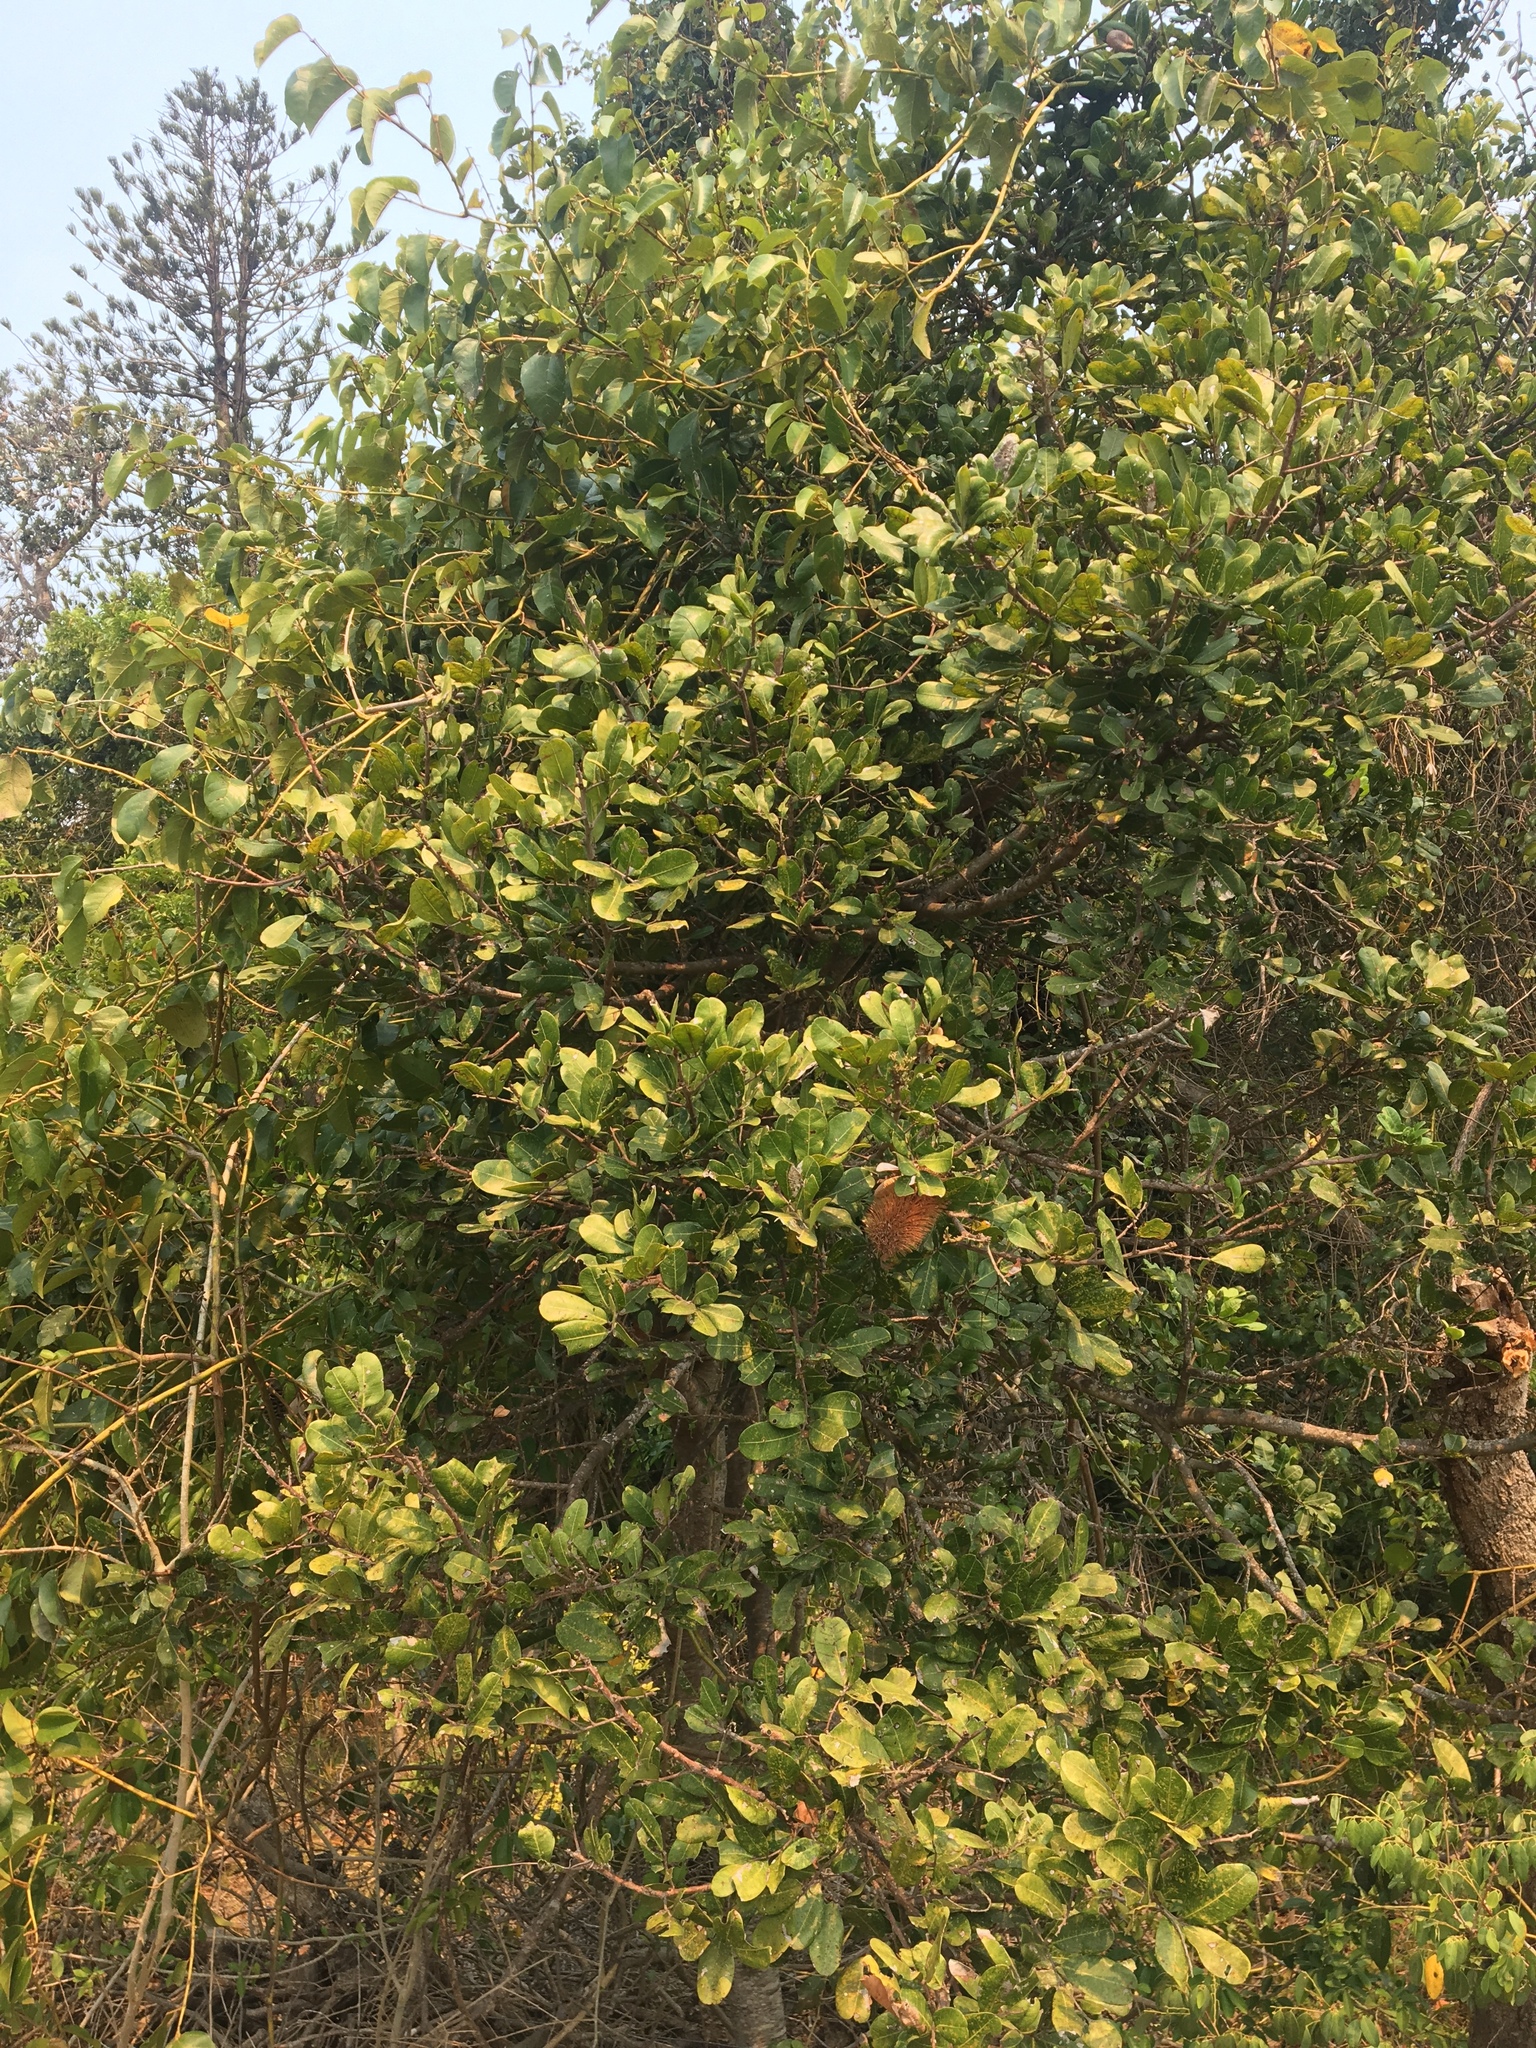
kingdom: Plantae
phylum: Tracheophyta
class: Magnoliopsida
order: Proteales
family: Proteaceae
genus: Banksia
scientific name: Banksia integrifolia
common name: White-honeysuckle
